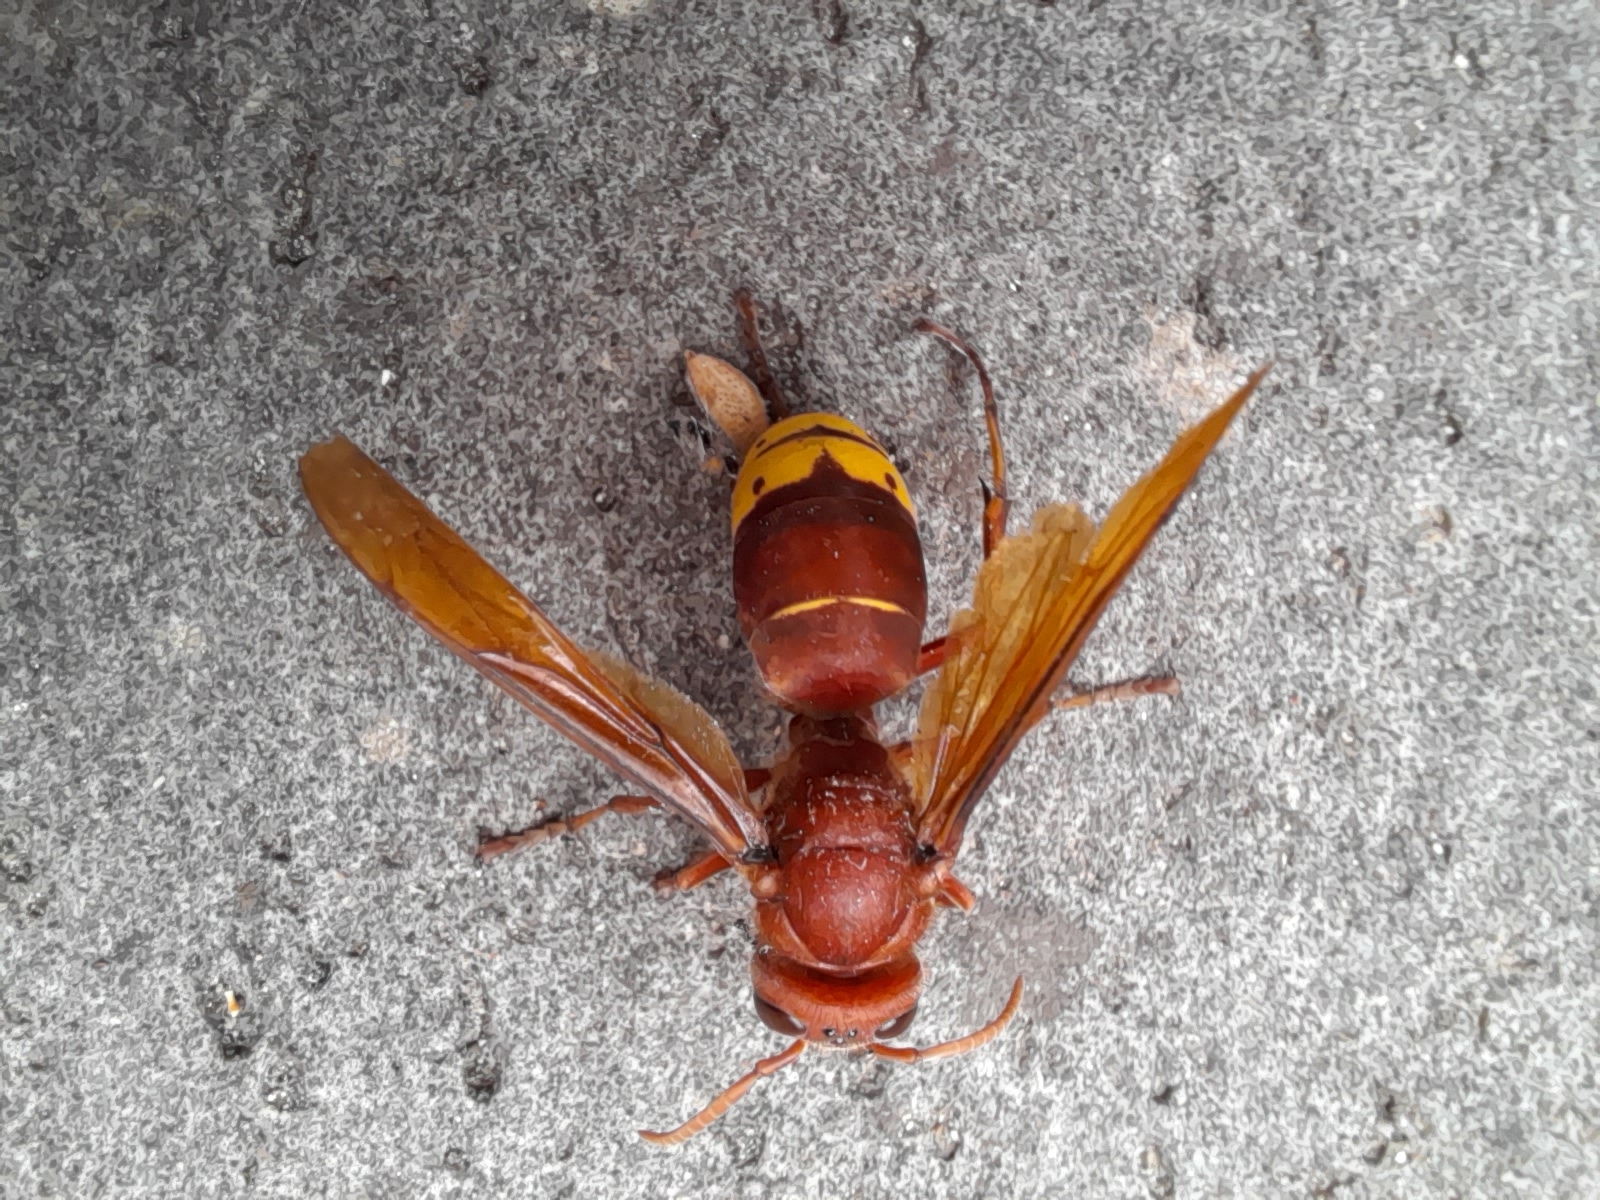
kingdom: Animalia
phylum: Arthropoda
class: Insecta
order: Hymenoptera
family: Vespidae
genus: Vespa
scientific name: Vespa orientalis
